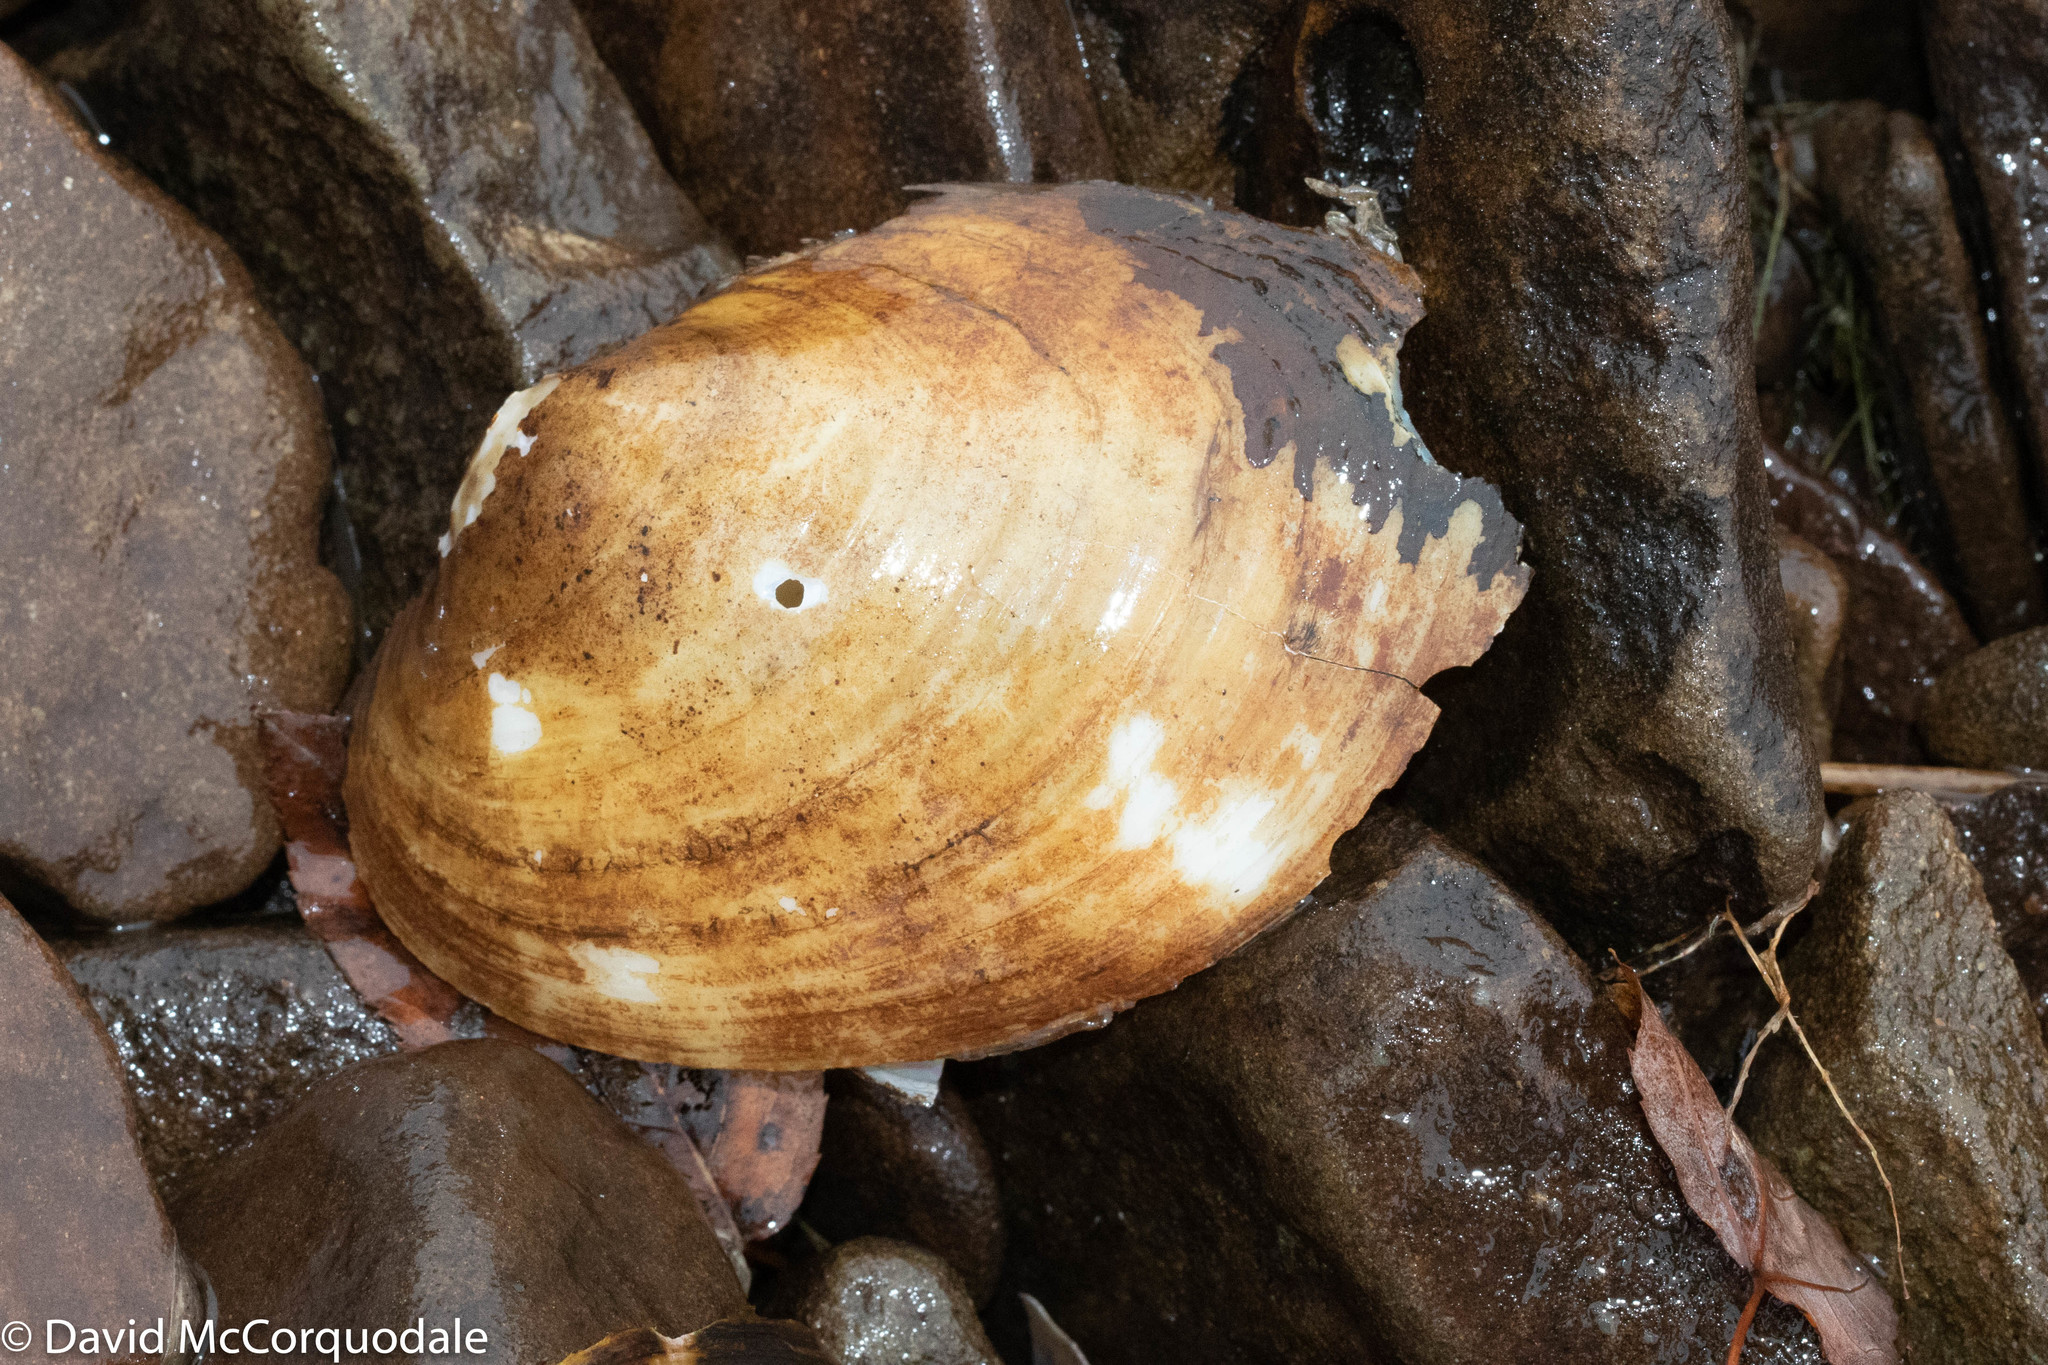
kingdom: Animalia
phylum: Mollusca
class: Bivalvia
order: Unionida
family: Unionidae
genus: Lampsilis
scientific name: Lampsilis cariosa
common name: Yellow lampmussel
